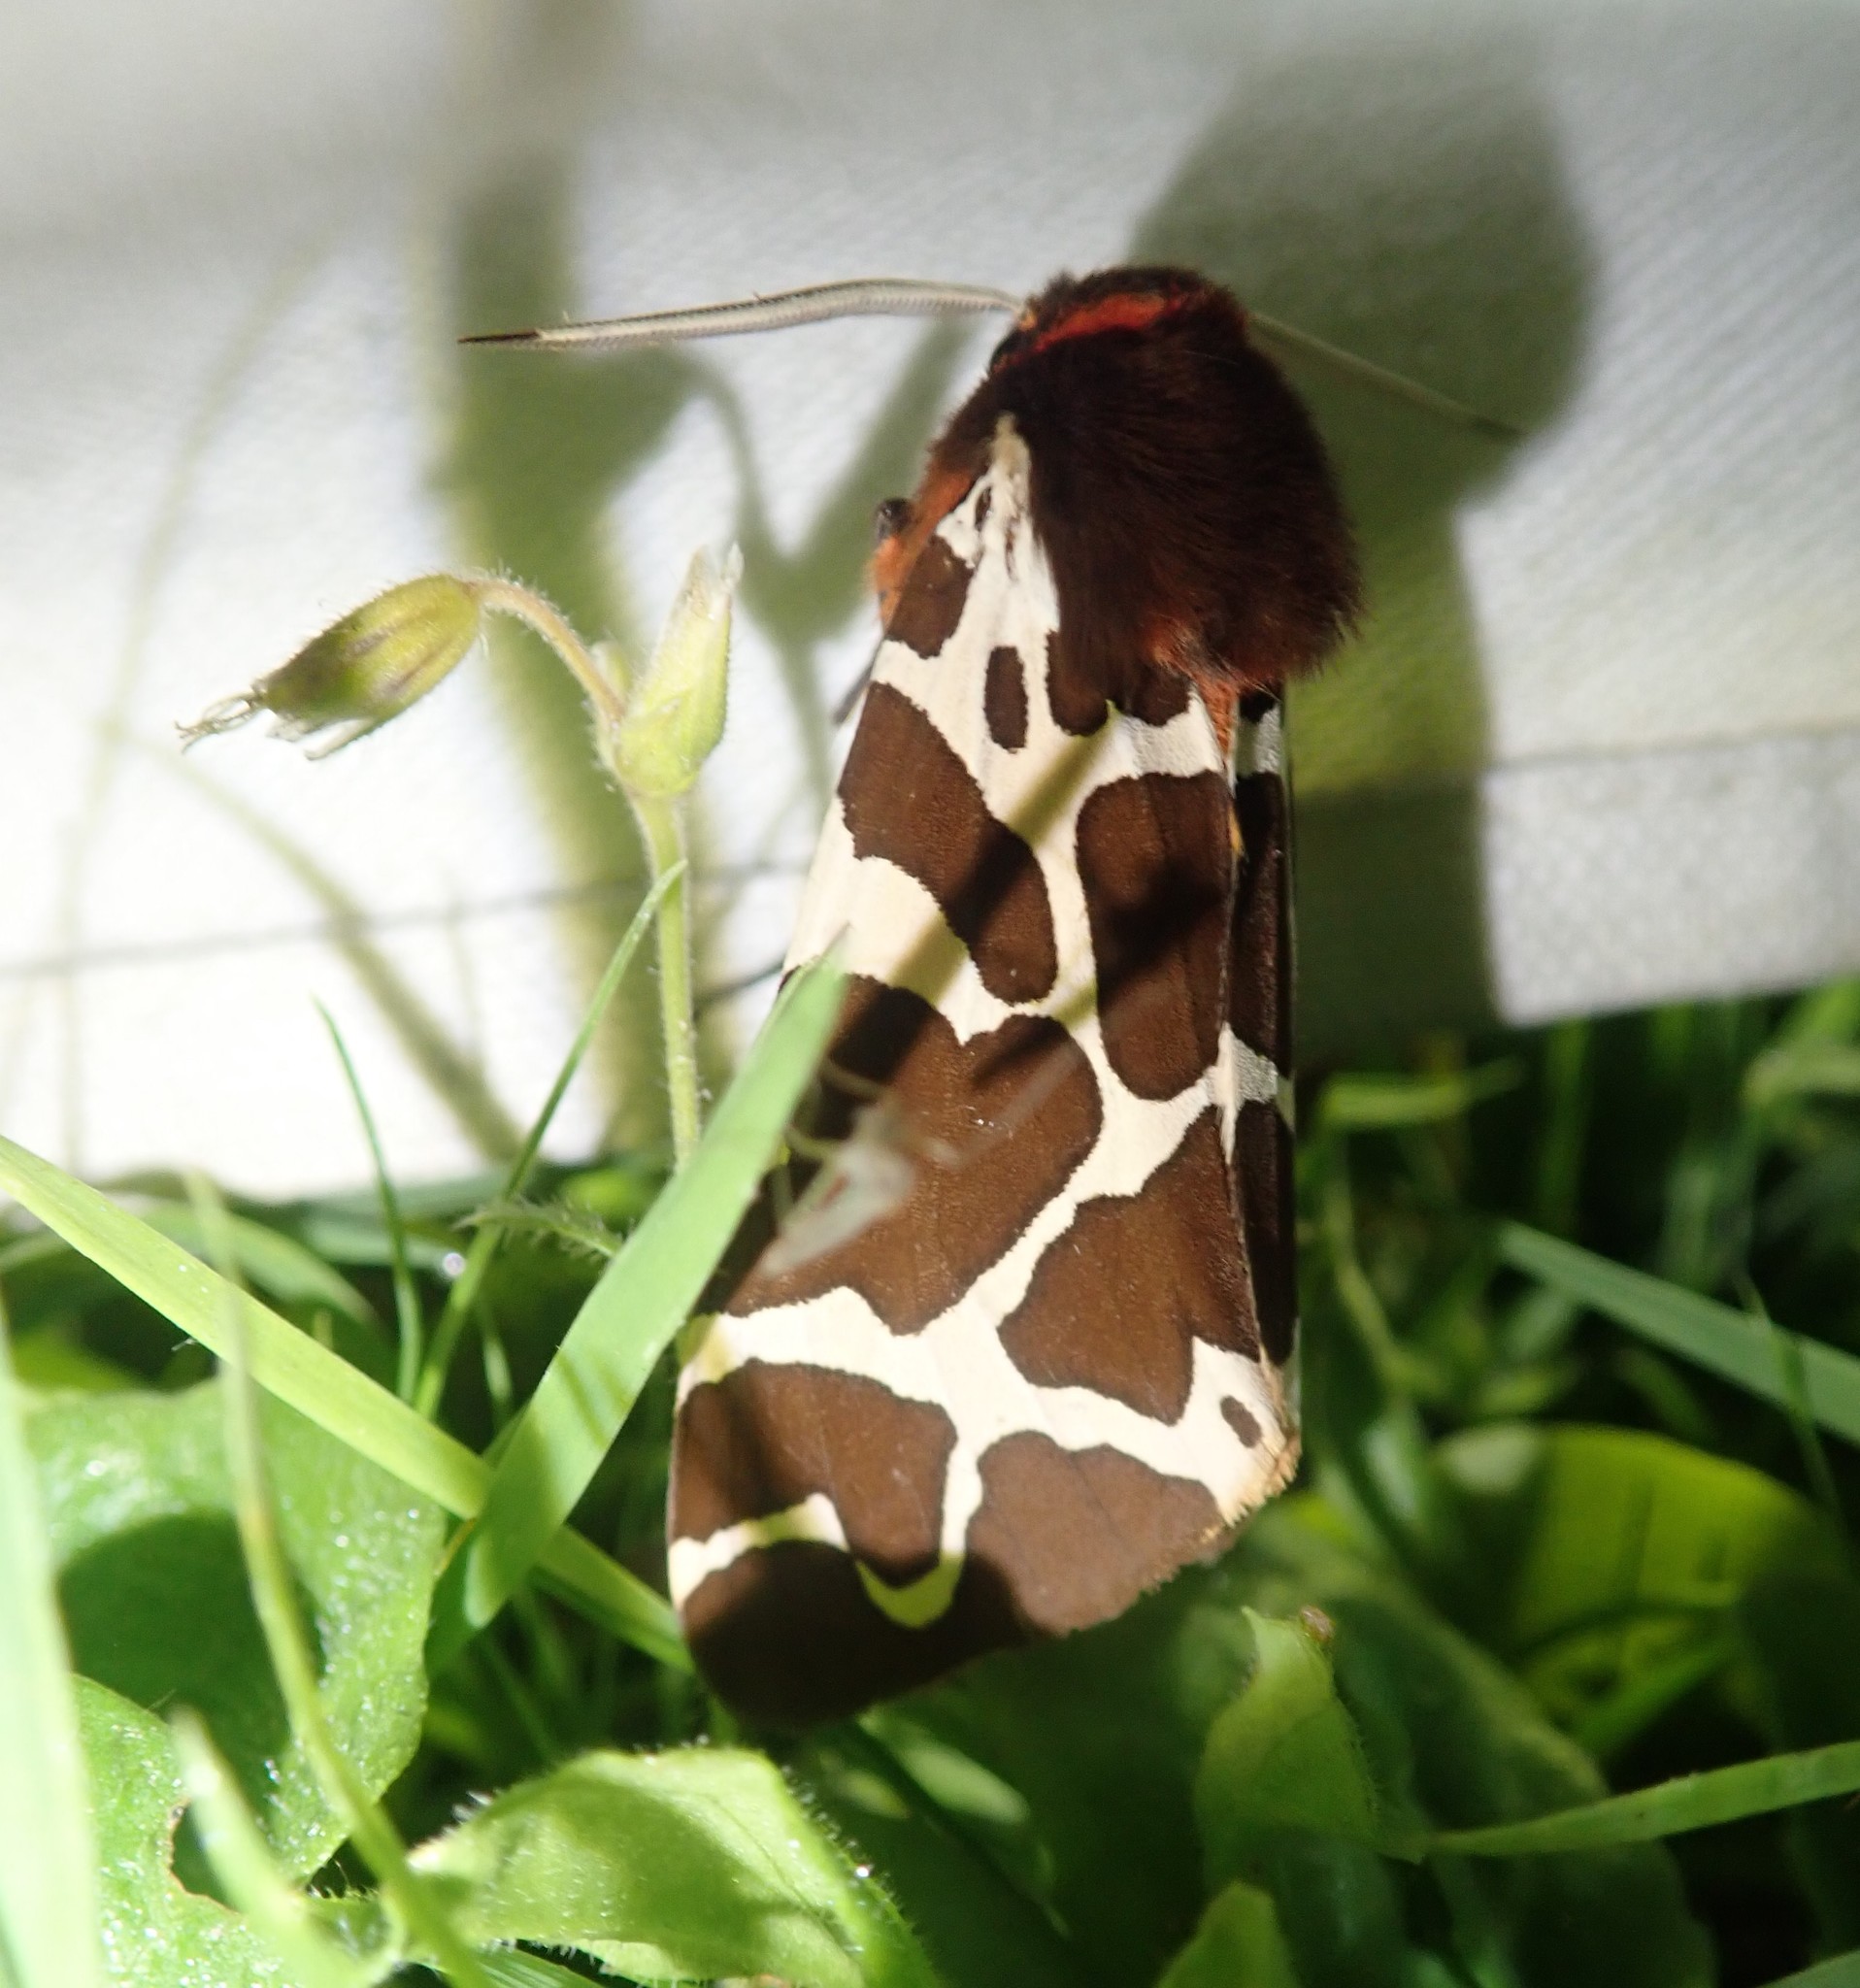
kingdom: Animalia
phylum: Arthropoda
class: Insecta
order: Lepidoptera
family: Erebidae
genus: Arctia
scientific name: Arctia caja
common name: Garden tiger
